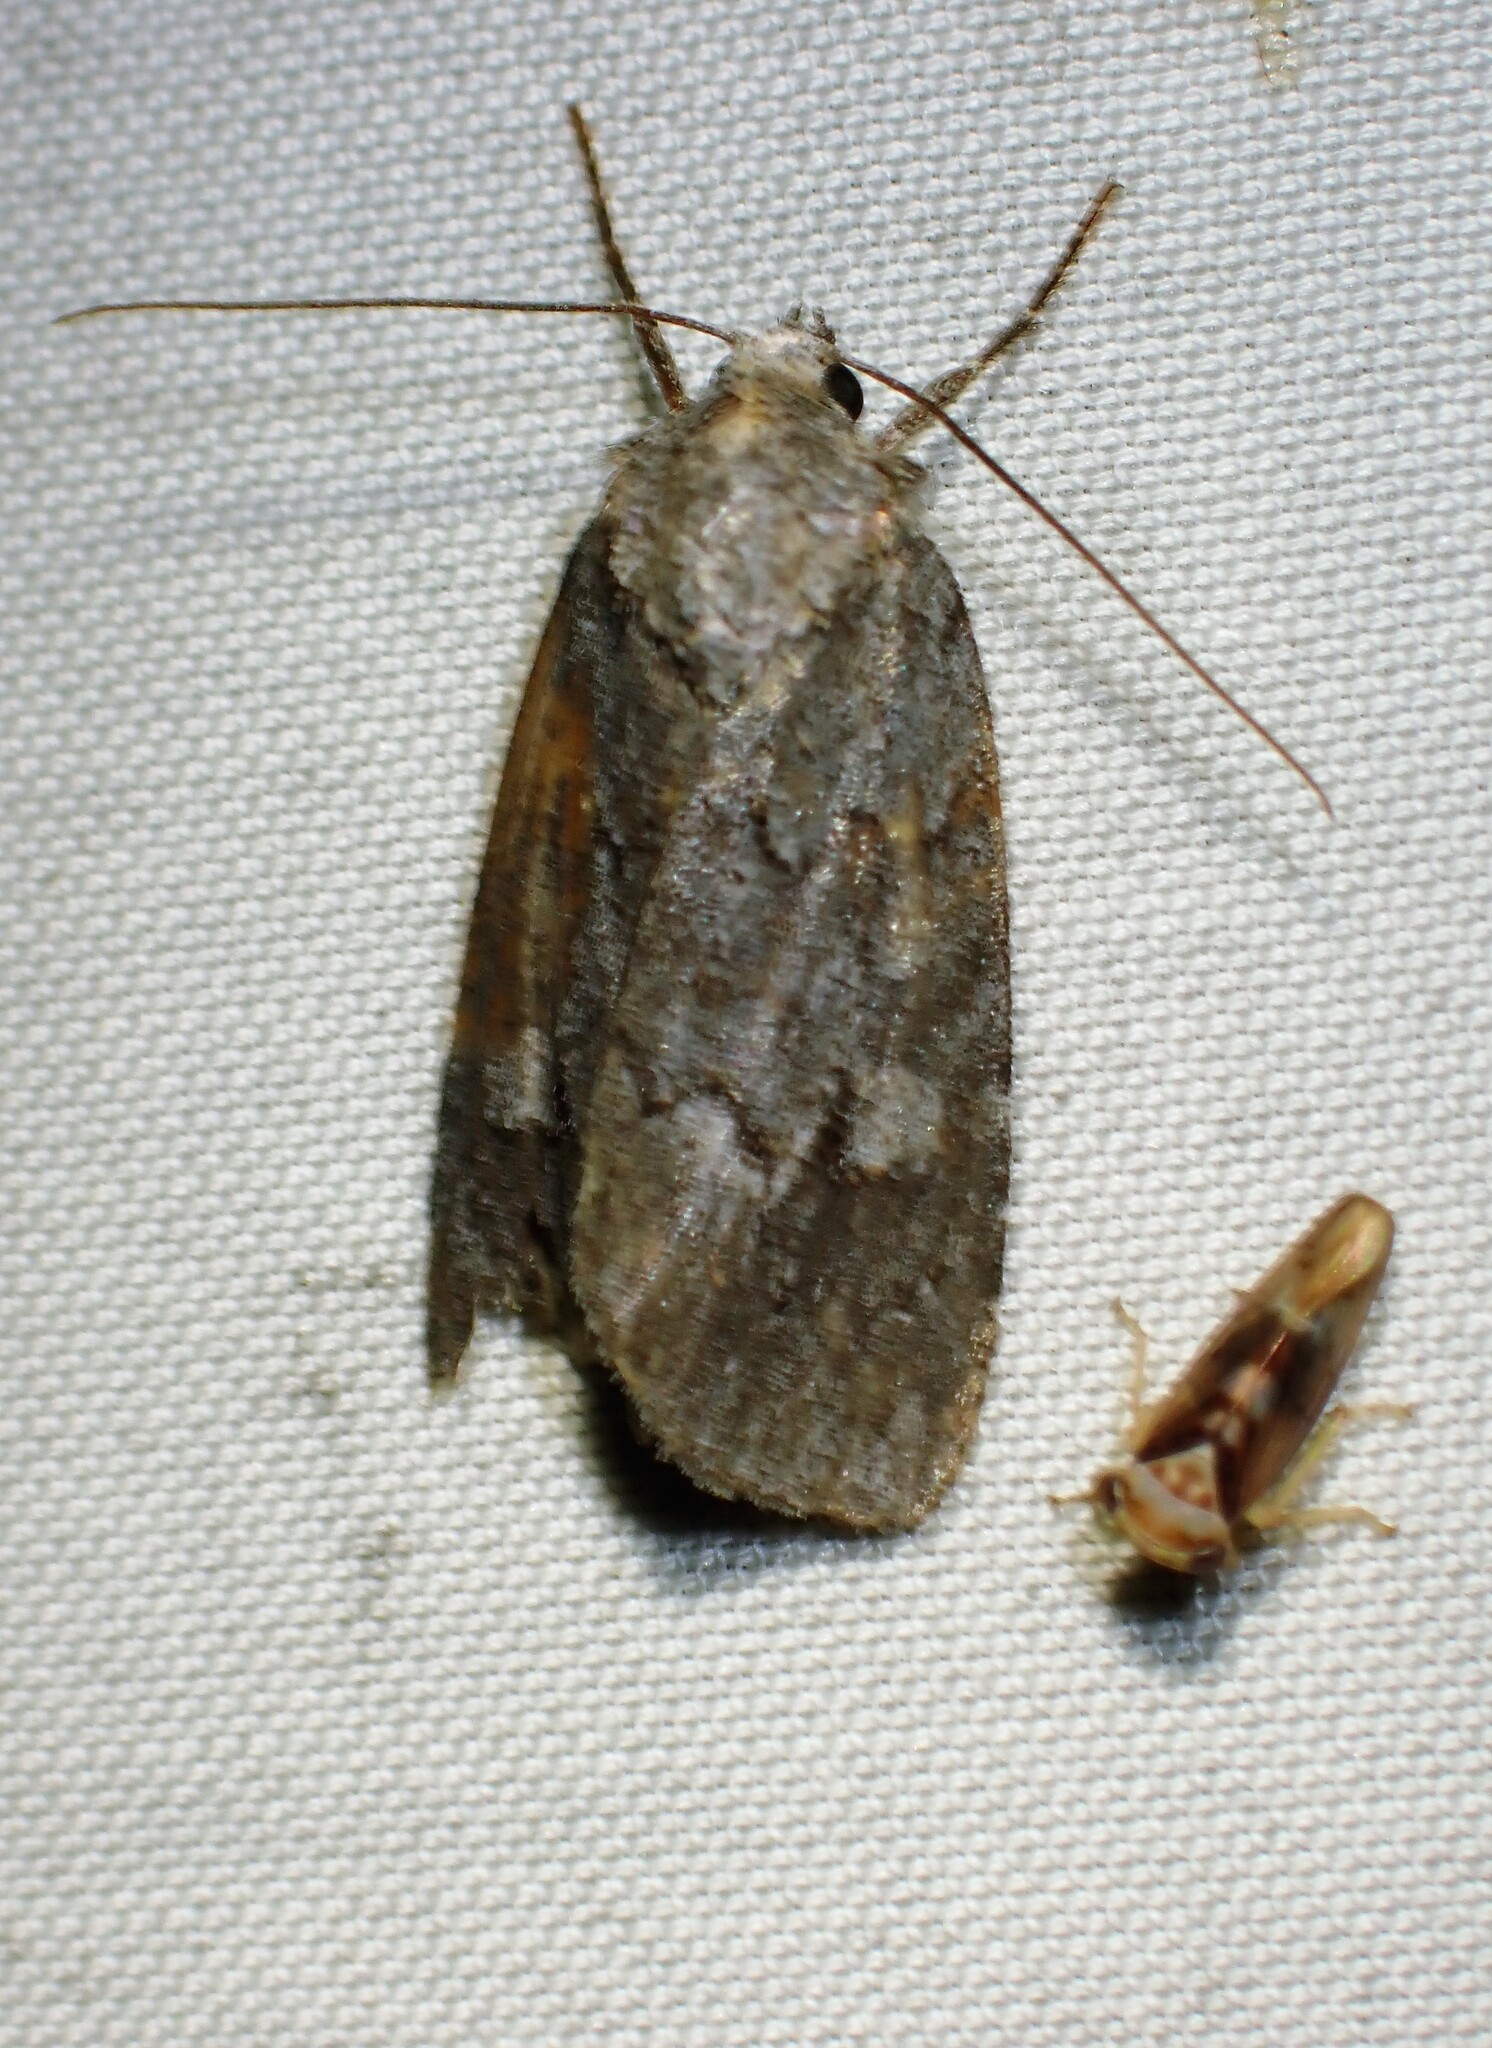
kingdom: Animalia
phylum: Arthropoda
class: Insecta
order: Lepidoptera
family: Noctuidae
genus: Sympistis
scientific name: Sympistis dentata
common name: Blueberry sallow
